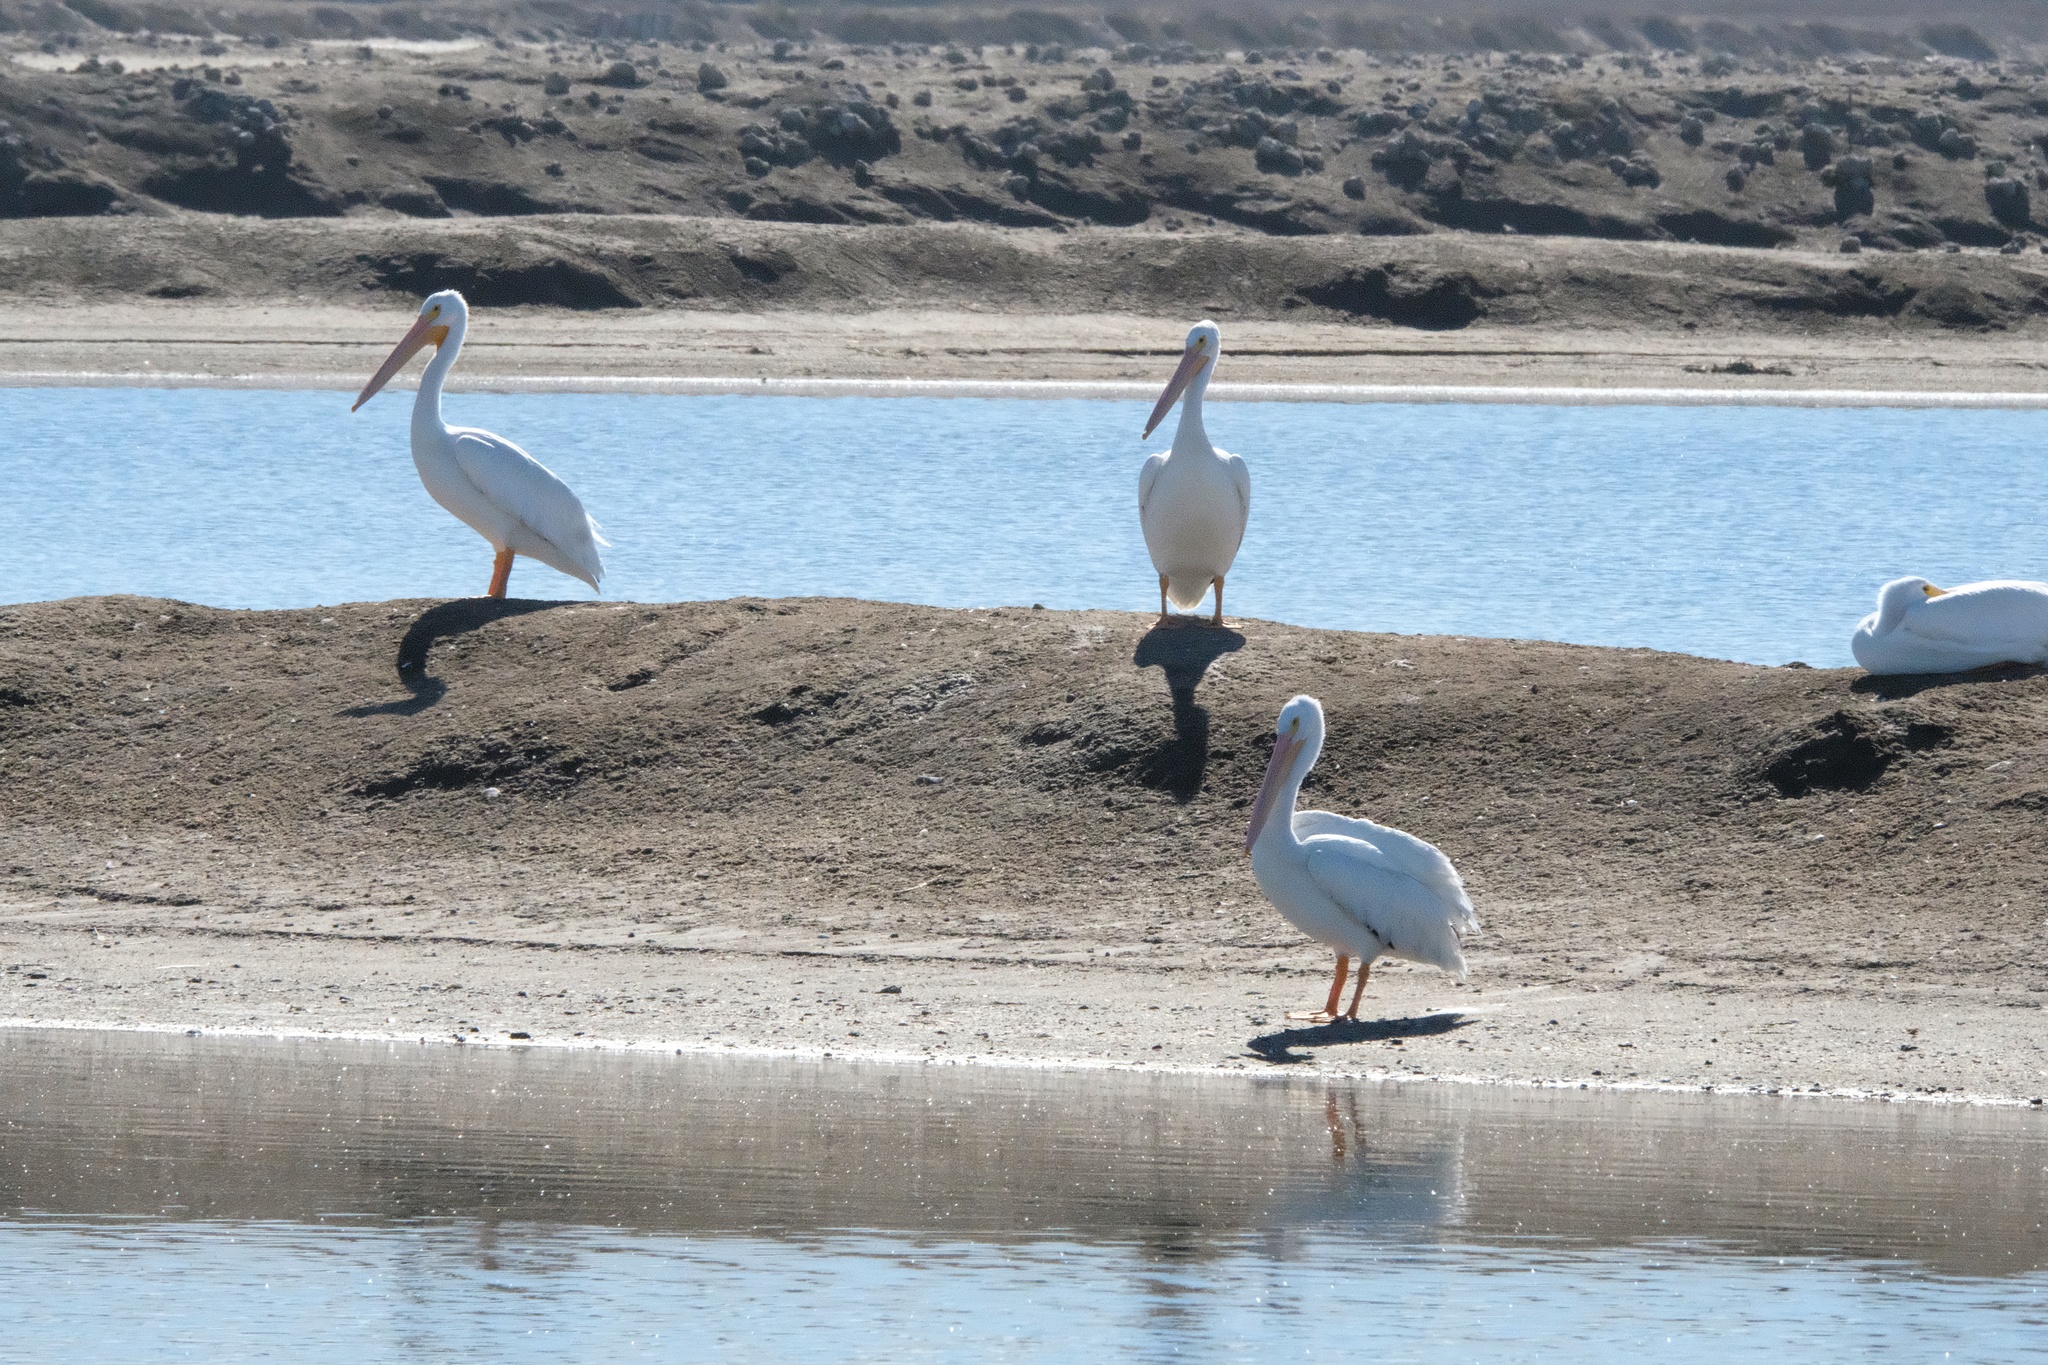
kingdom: Animalia
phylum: Chordata
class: Aves
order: Pelecaniformes
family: Pelecanidae
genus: Pelecanus
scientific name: Pelecanus erythrorhynchos
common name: American white pelican
